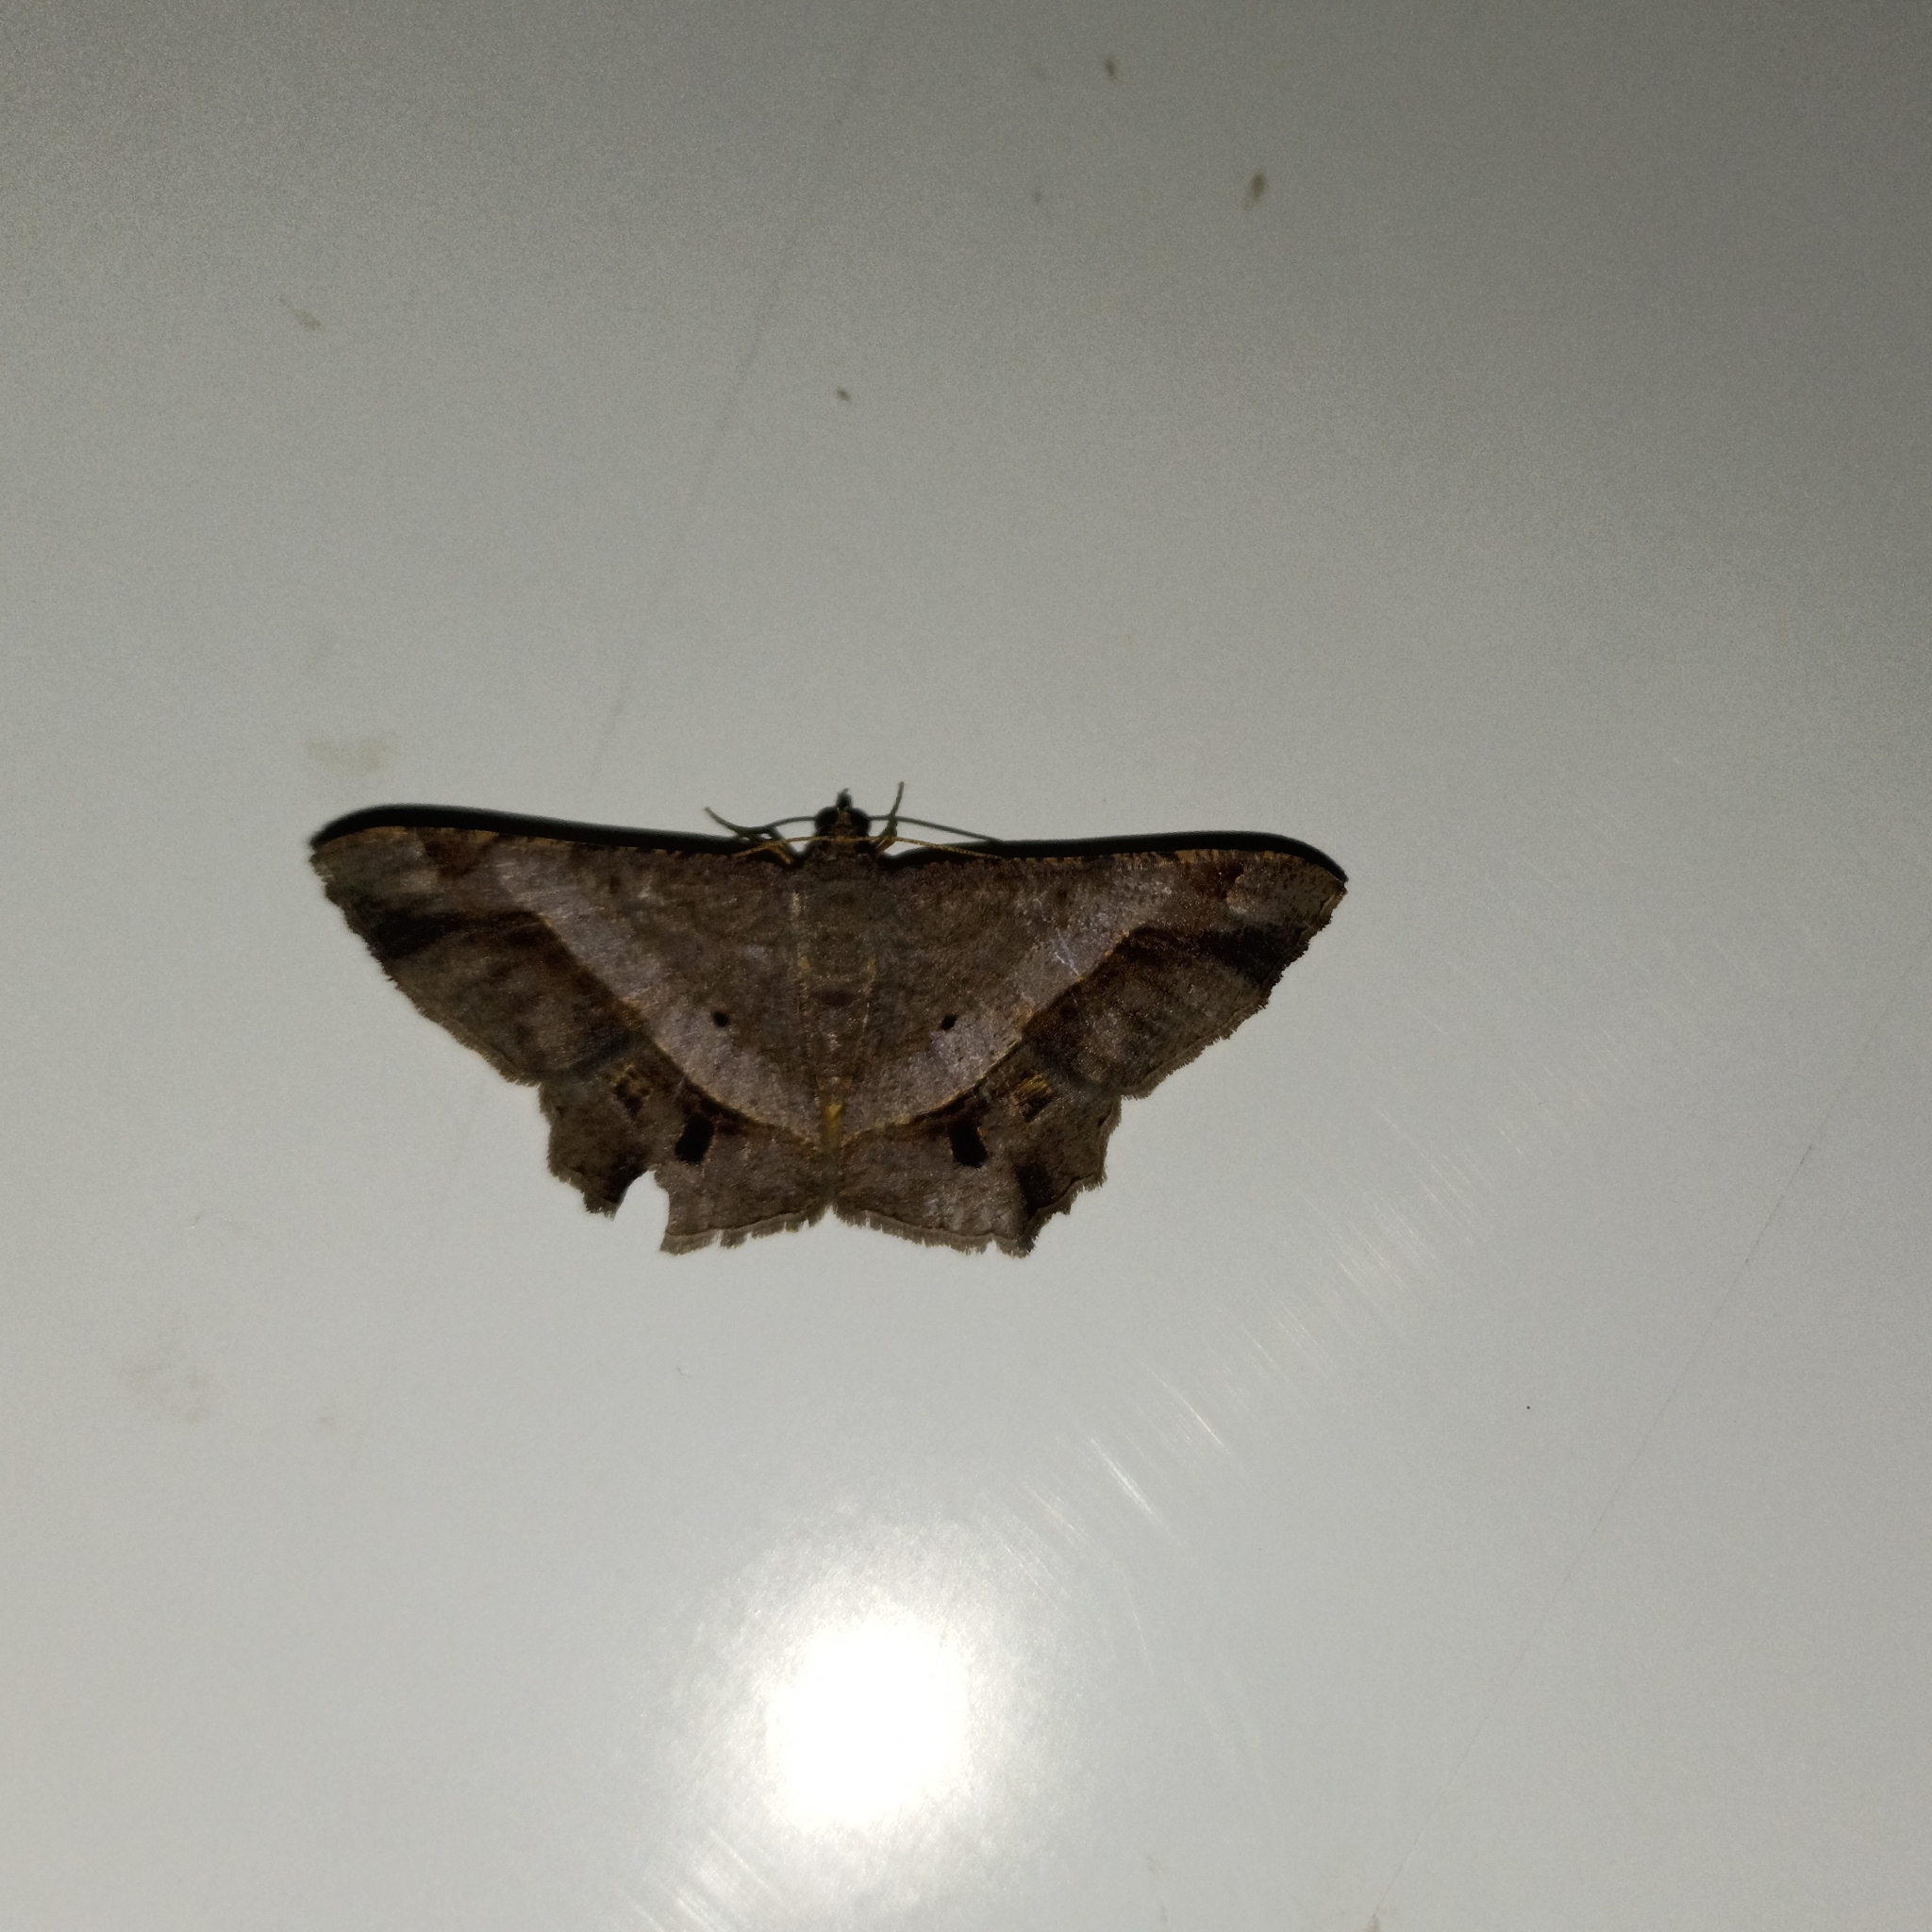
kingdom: Animalia
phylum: Arthropoda
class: Insecta
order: Lepidoptera
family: Geometridae
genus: Chiasmia
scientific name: Chiasmia eleonora
